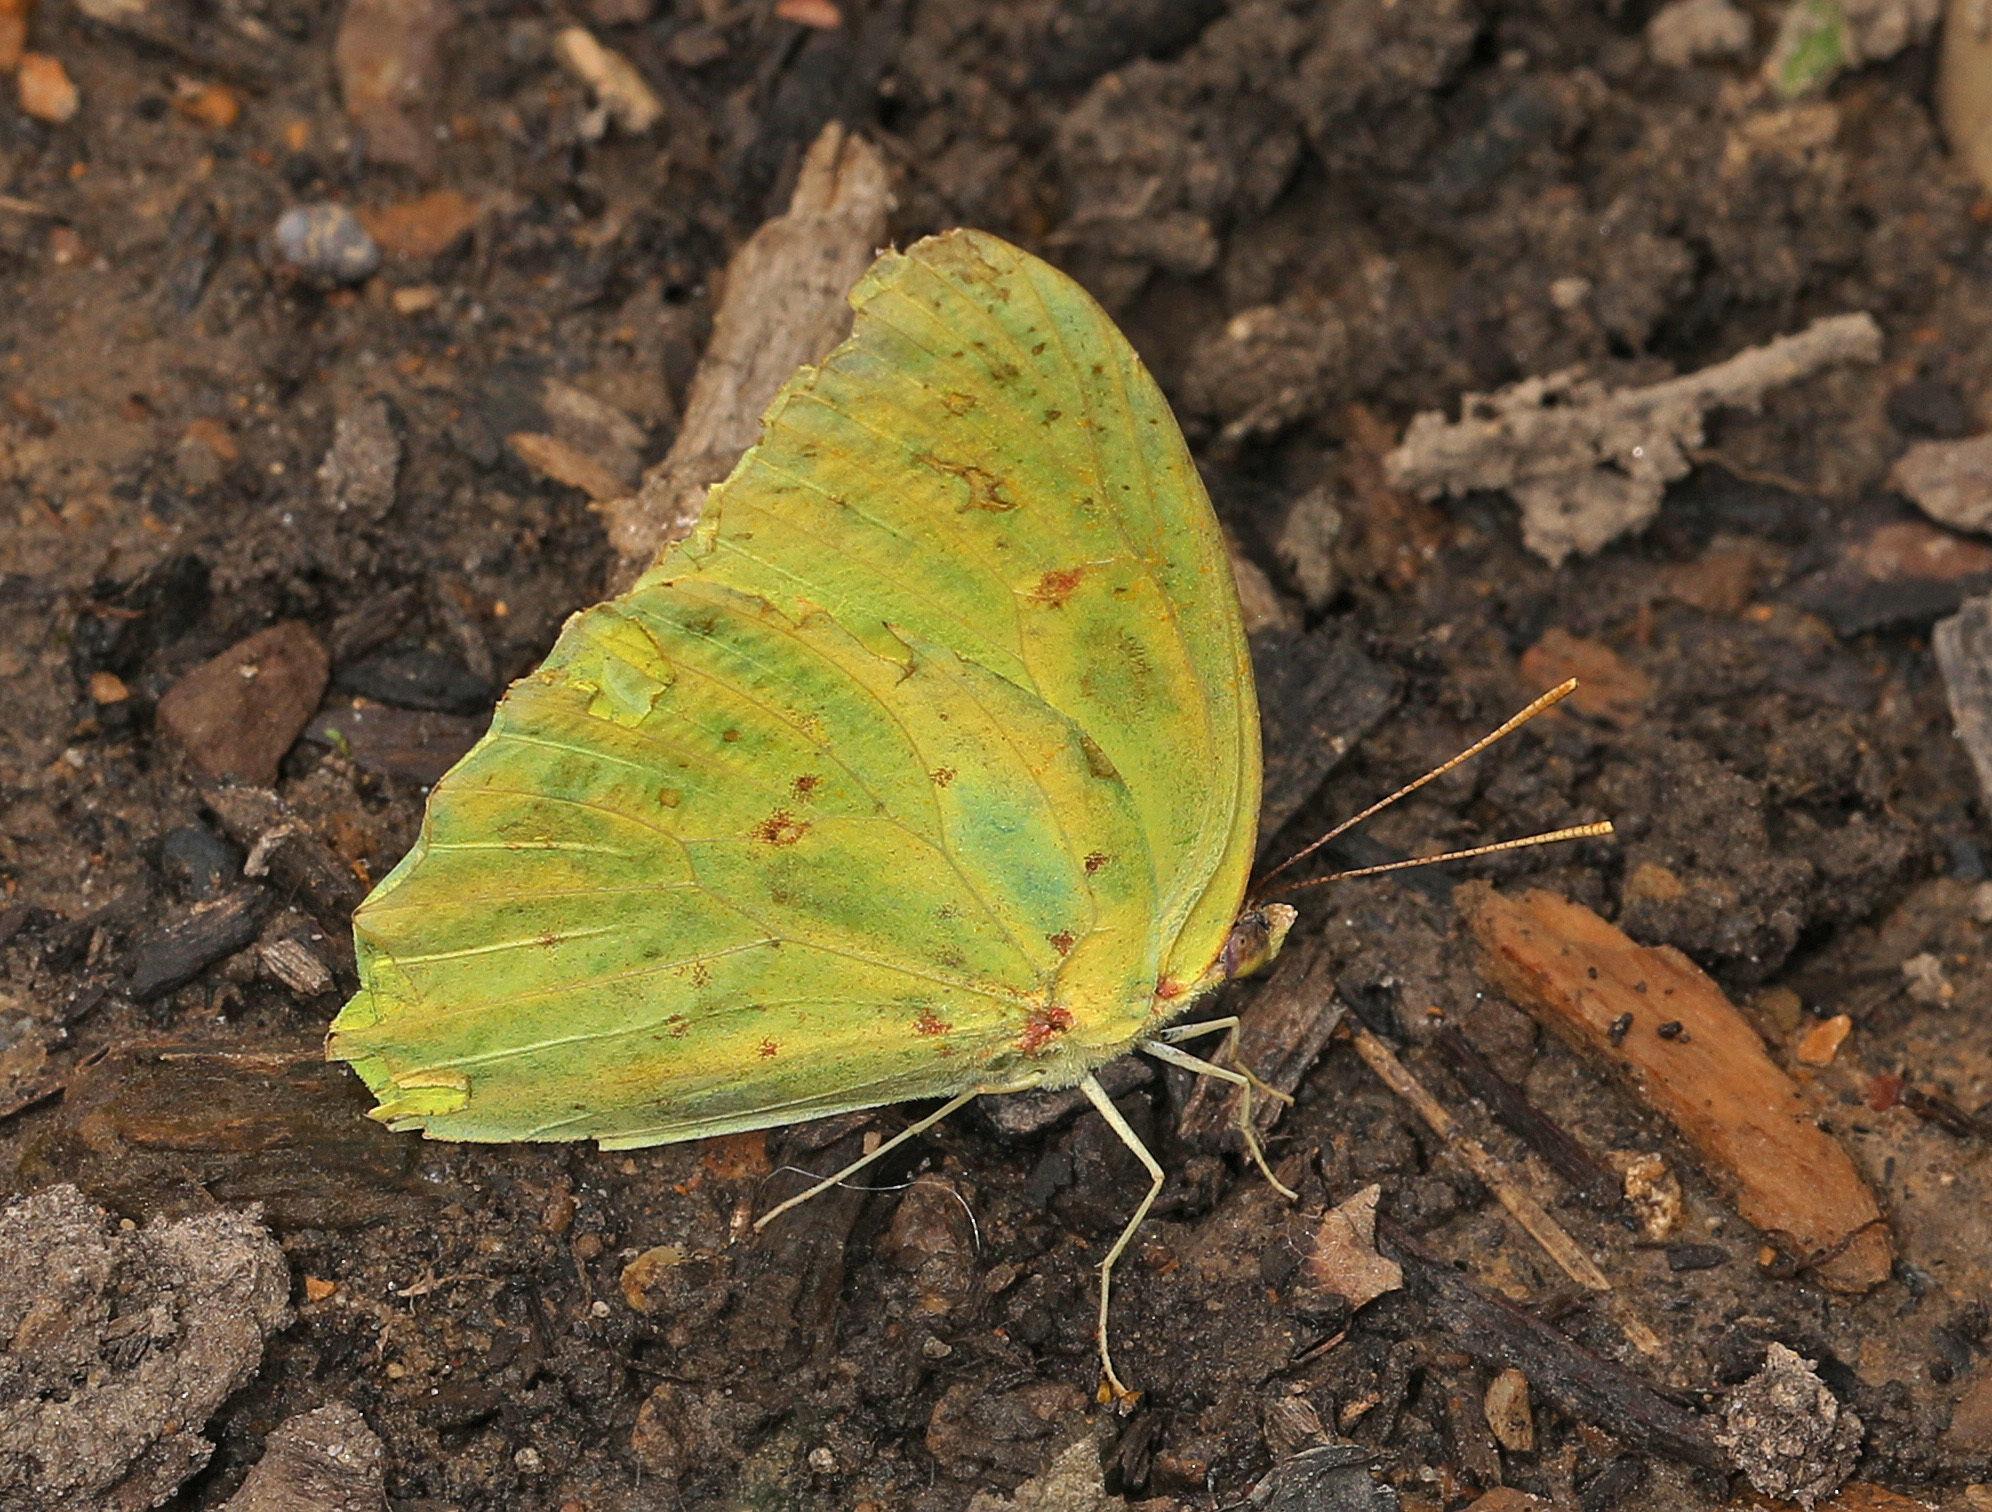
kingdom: Animalia
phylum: Arthropoda
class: Insecta
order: Lepidoptera
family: Pieridae
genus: Phoebis
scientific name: Phoebis sennae
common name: Cloudless sulphur
